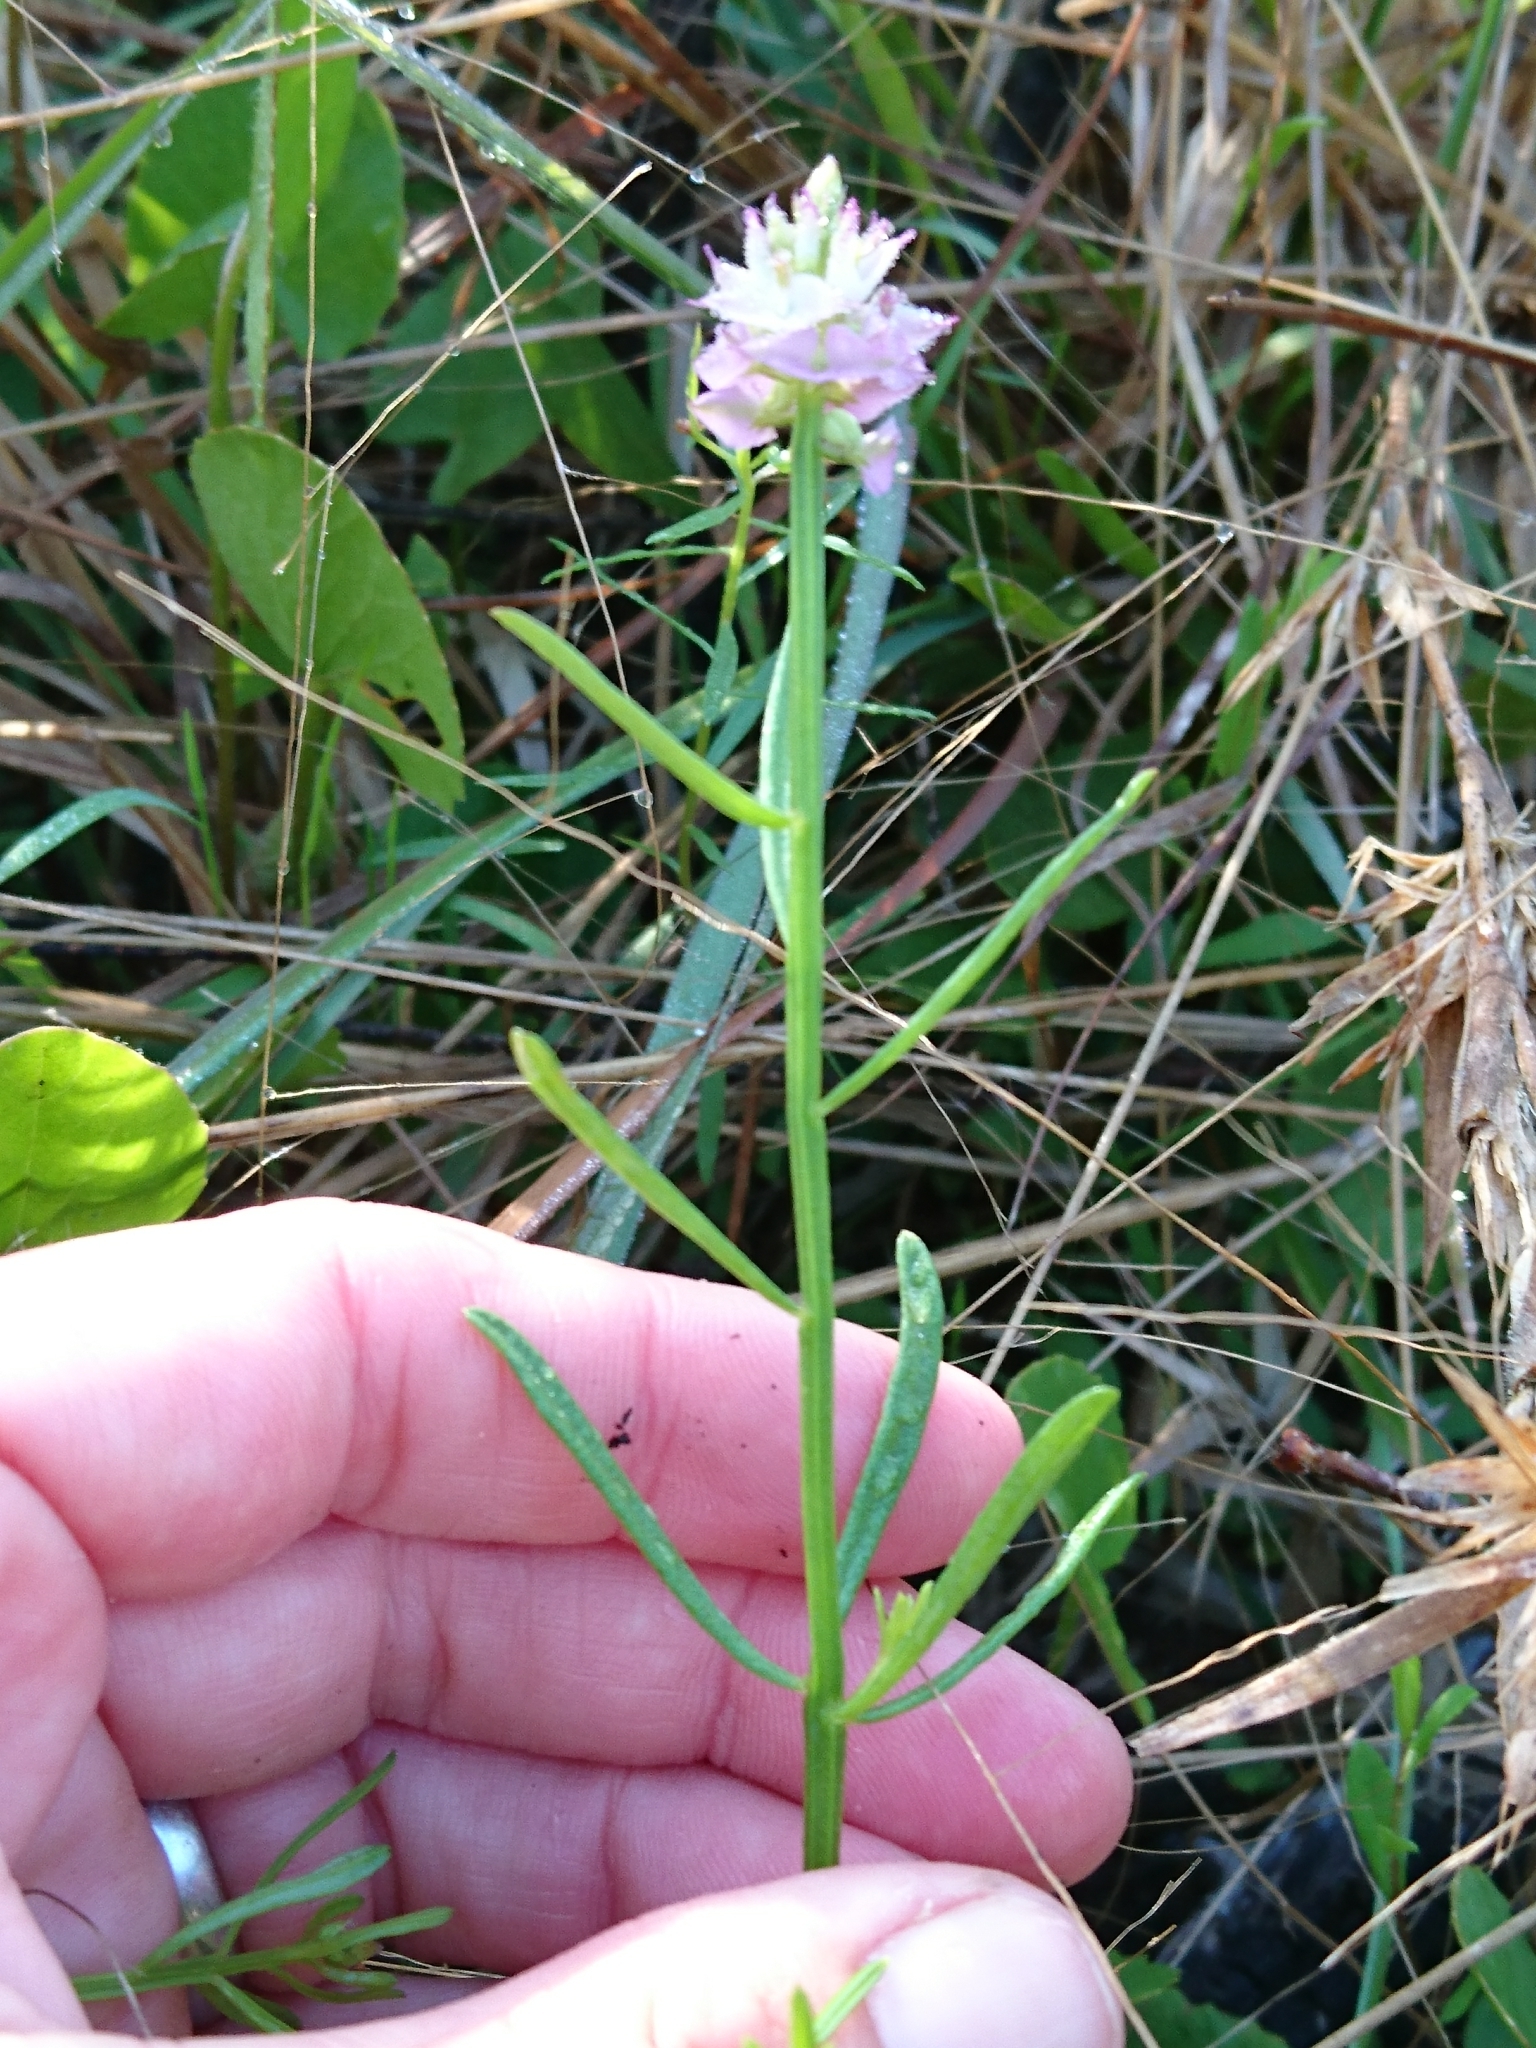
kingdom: Plantae
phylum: Tracheophyta
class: Magnoliopsida
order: Fabales
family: Polygalaceae
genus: Polygala
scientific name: Polygala cruciata
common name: Drumheads
